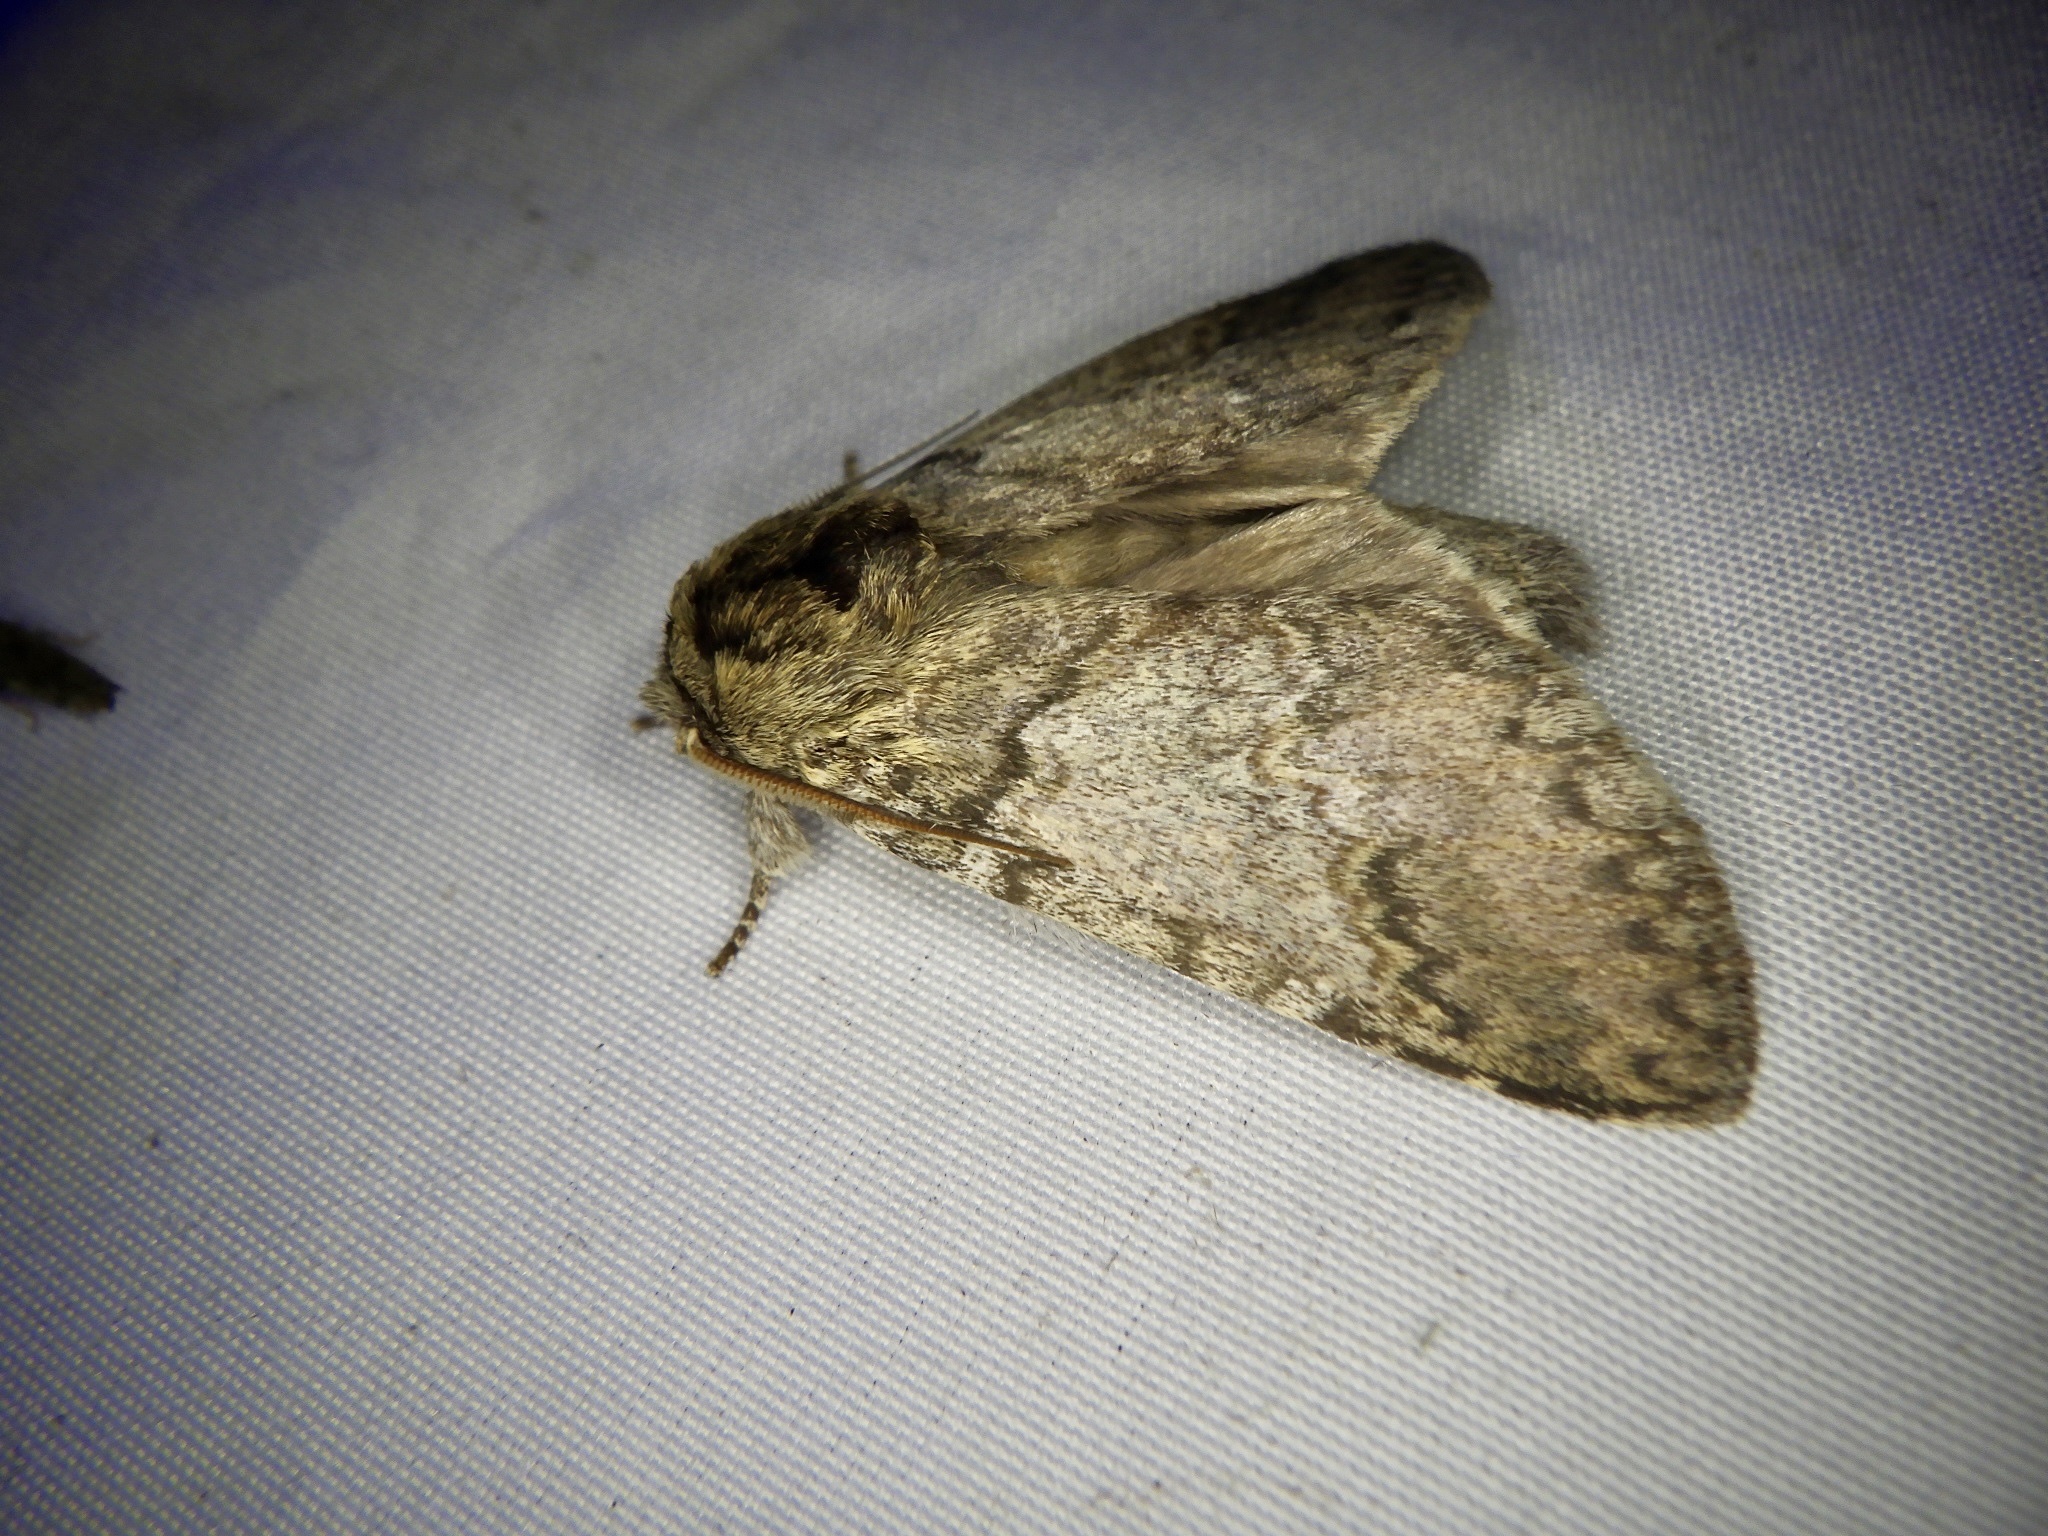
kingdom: Animalia
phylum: Arthropoda
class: Insecta
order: Lepidoptera
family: Notodontidae
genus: Disparia
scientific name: Disparia diluta
